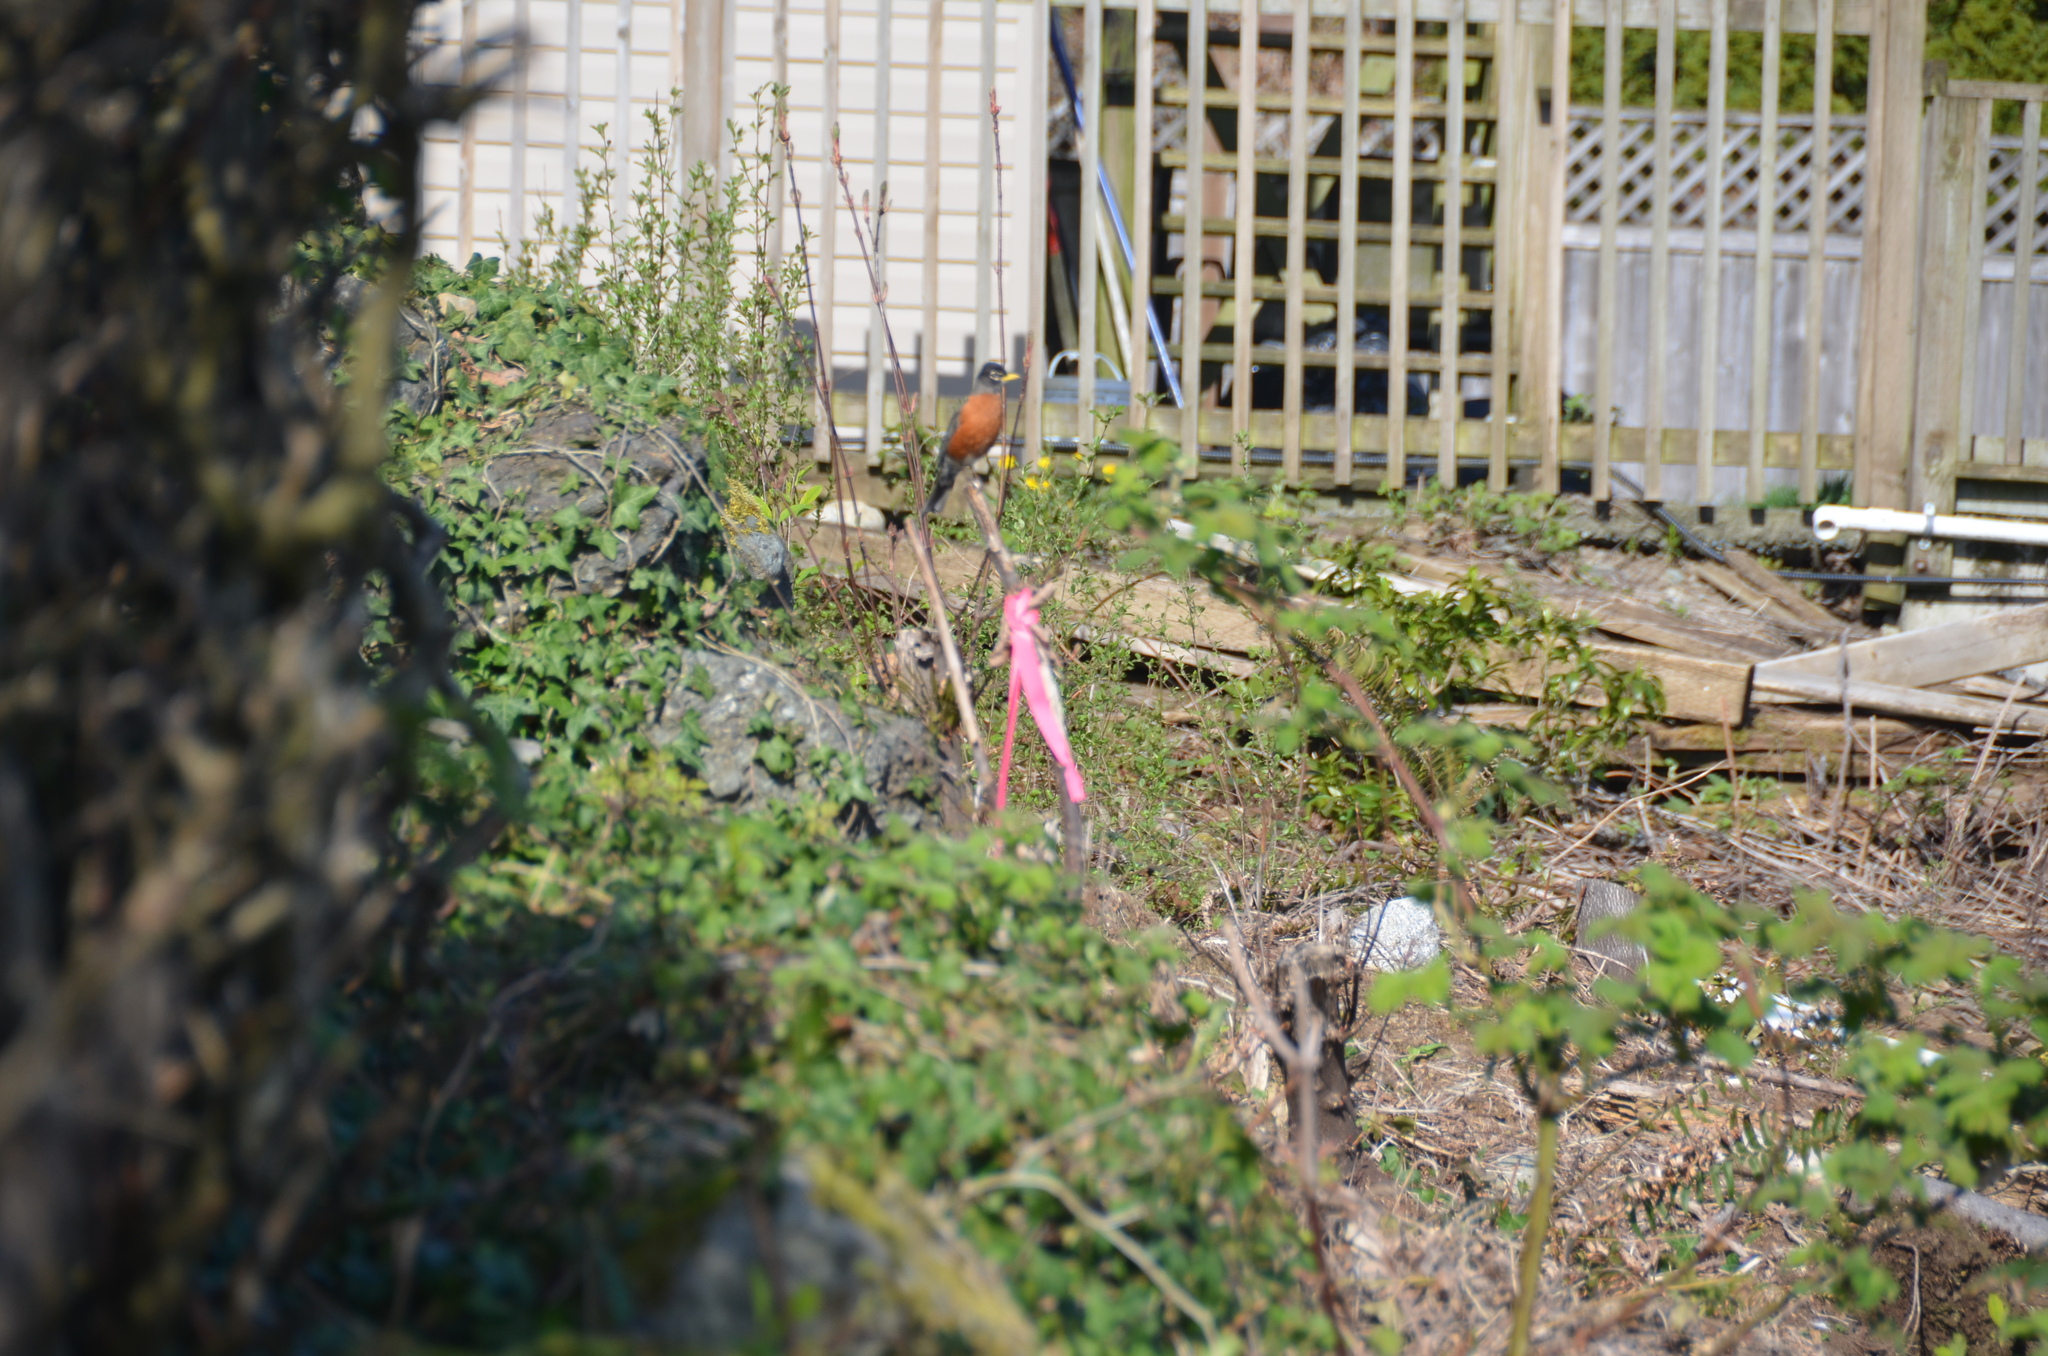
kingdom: Animalia
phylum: Chordata
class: Aves
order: Passeriformes
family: Turdidae
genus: Turdus
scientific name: Turdus migratorius
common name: American robin
